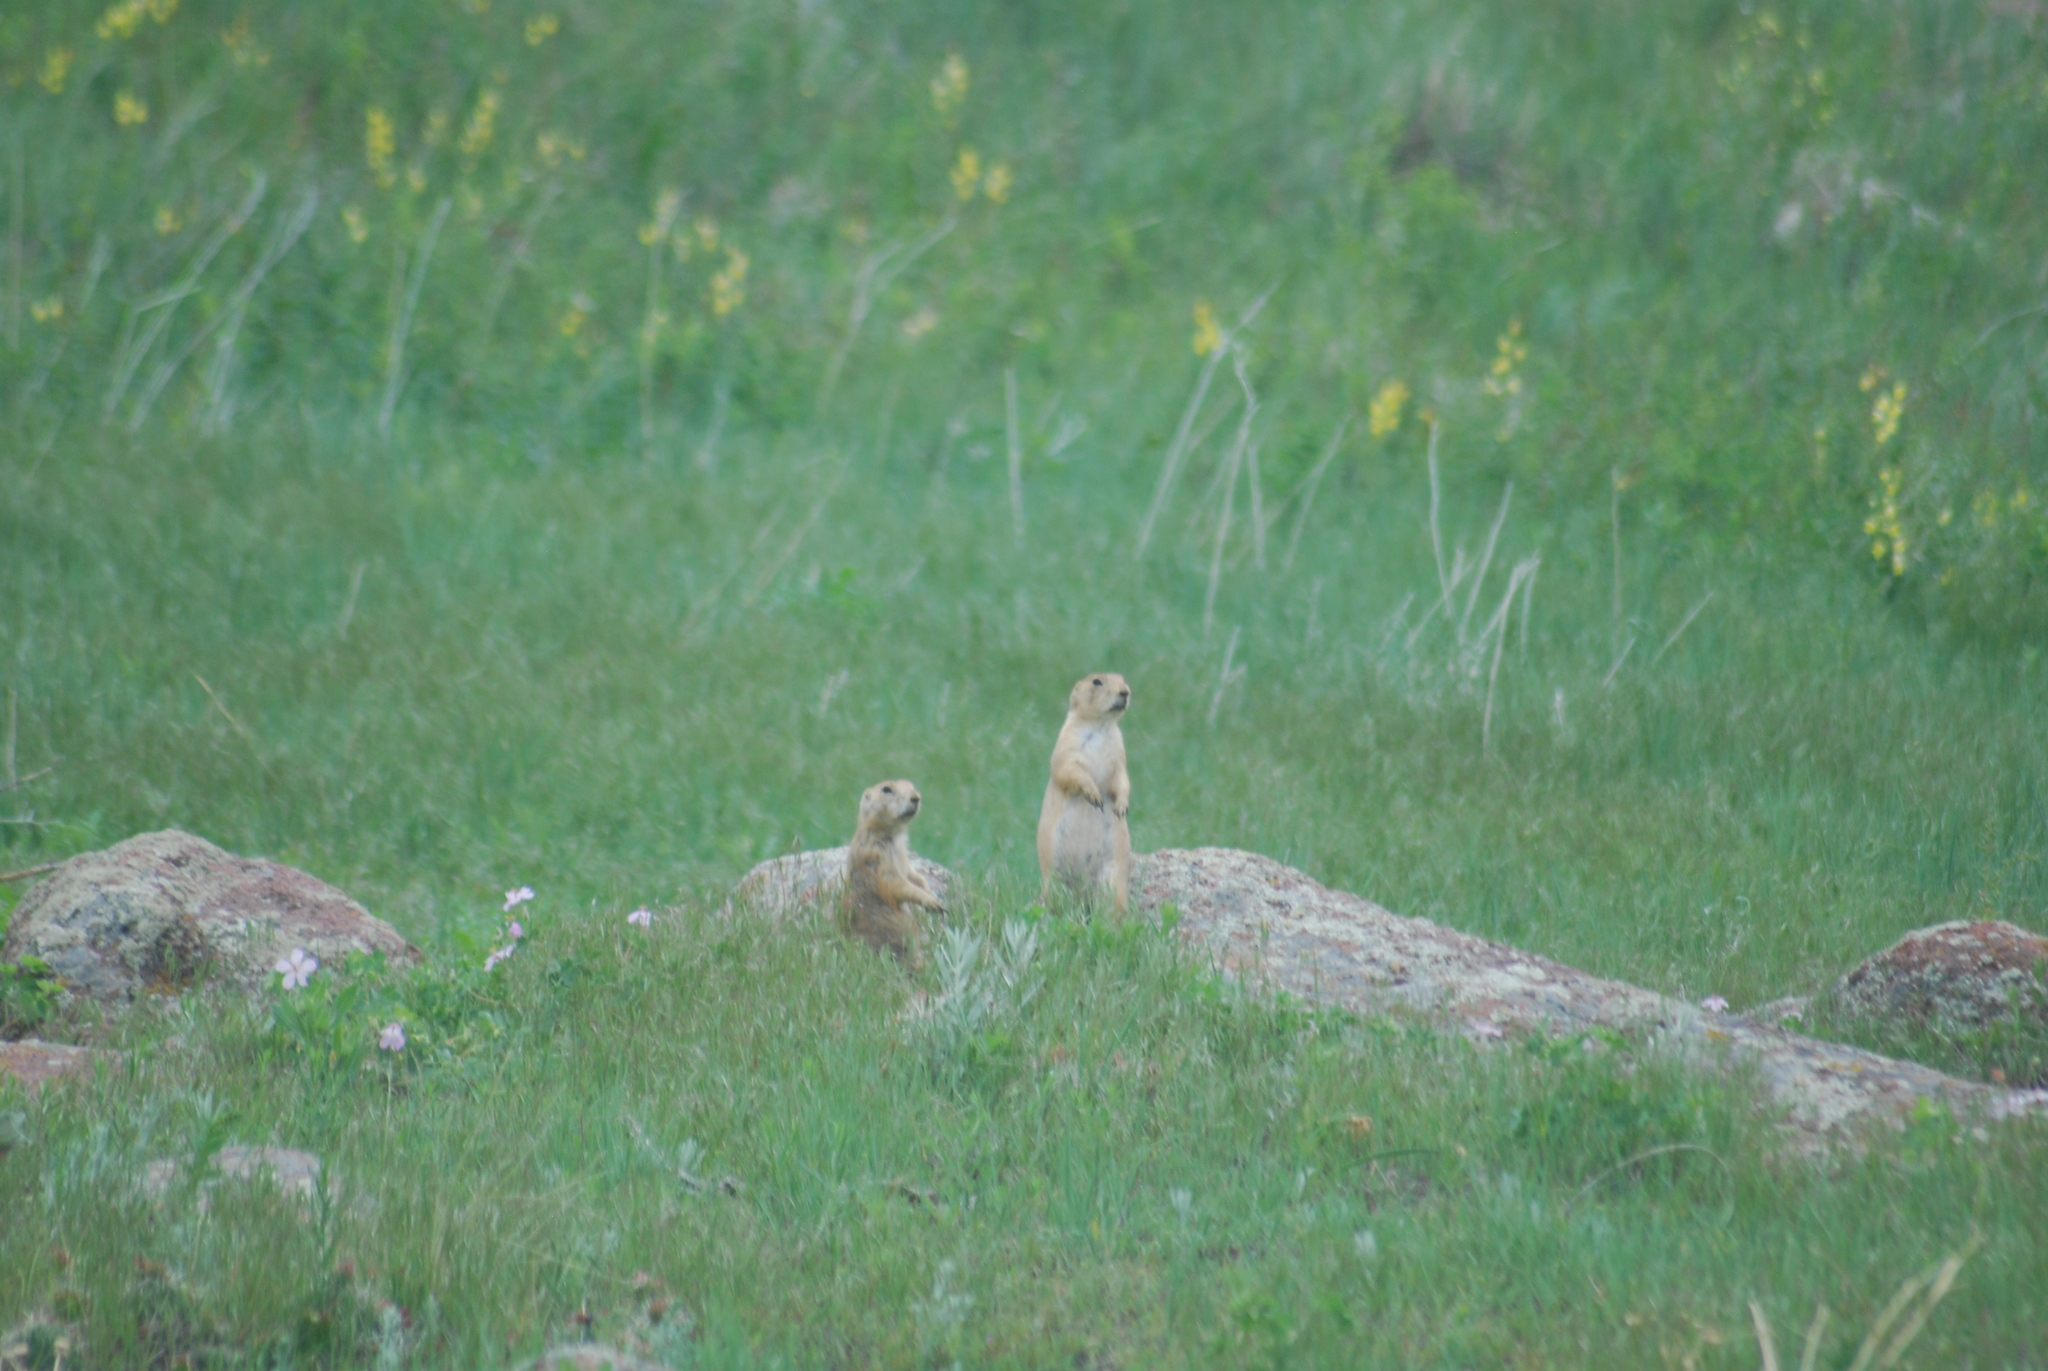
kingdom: Animalia
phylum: Chordata
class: Mammalia
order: Rodentia
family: Sciuridae
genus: Cynomys
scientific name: Cynomys ludovicianus
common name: Black-tailed prairie dog
